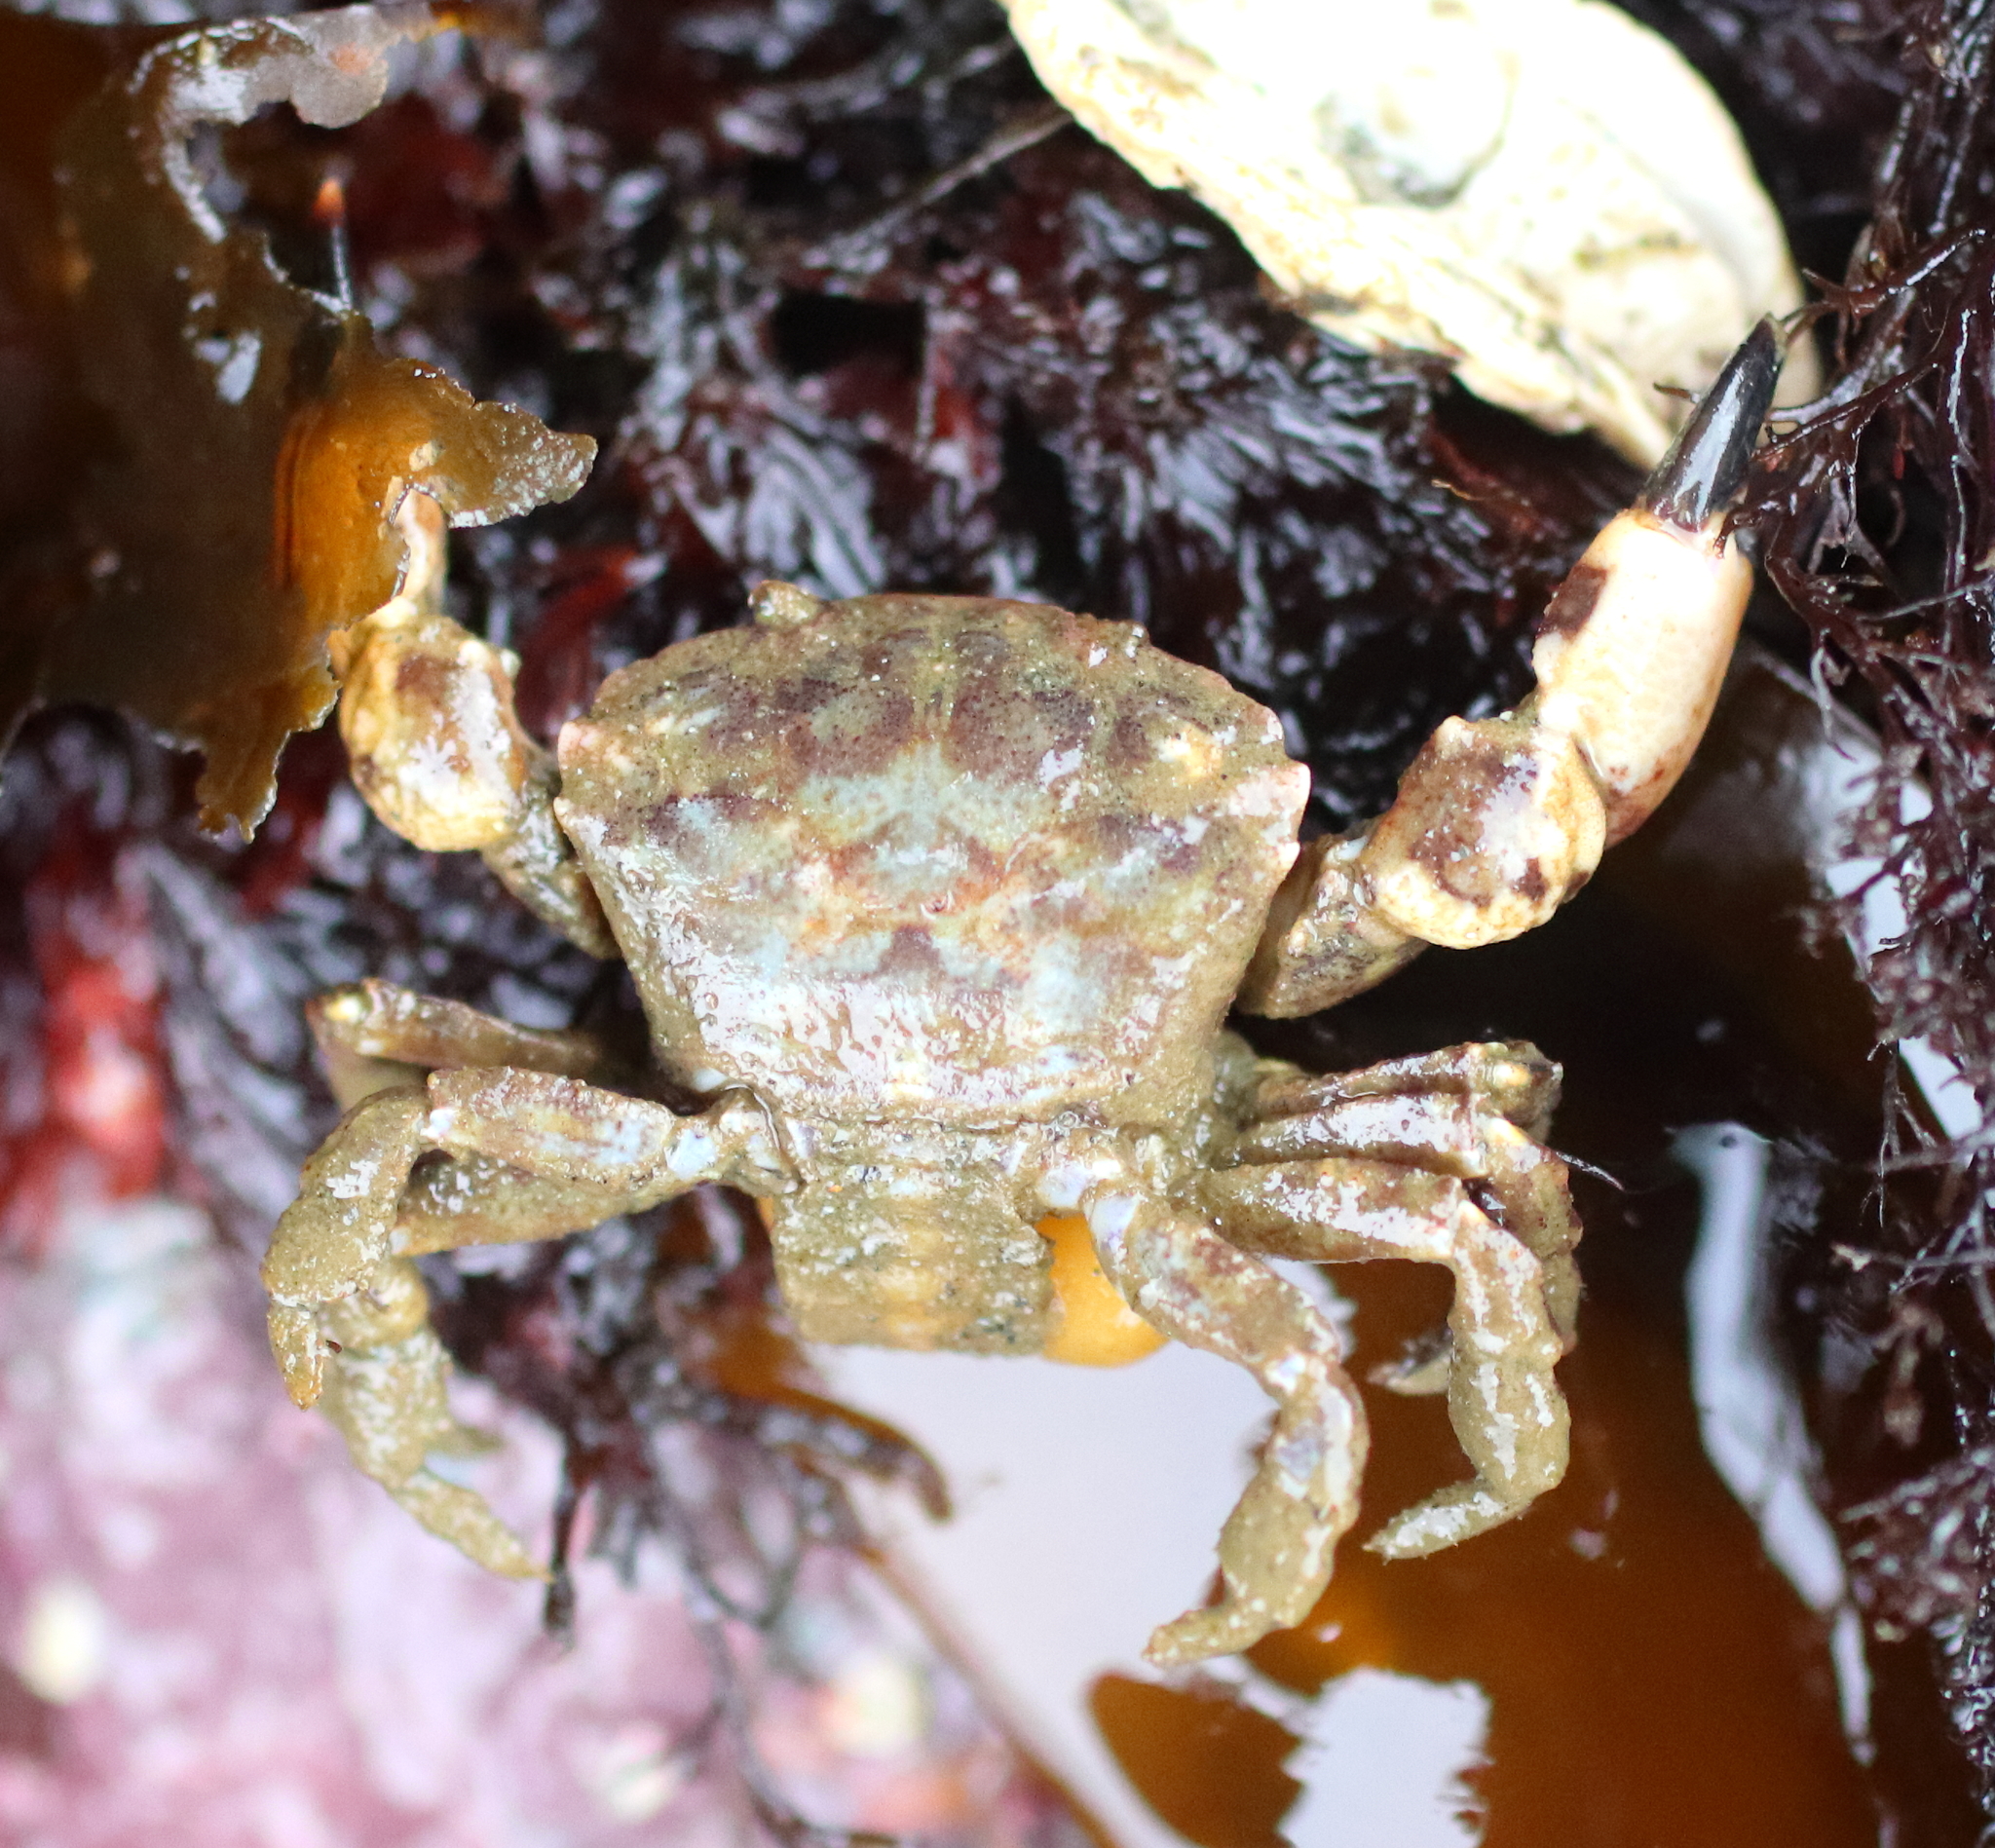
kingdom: Animalia
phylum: Arthropoda
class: Malacostraca
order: Decapoda
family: Panopeidae
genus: Lophopanopeus
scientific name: Lophopanopeus bellus
